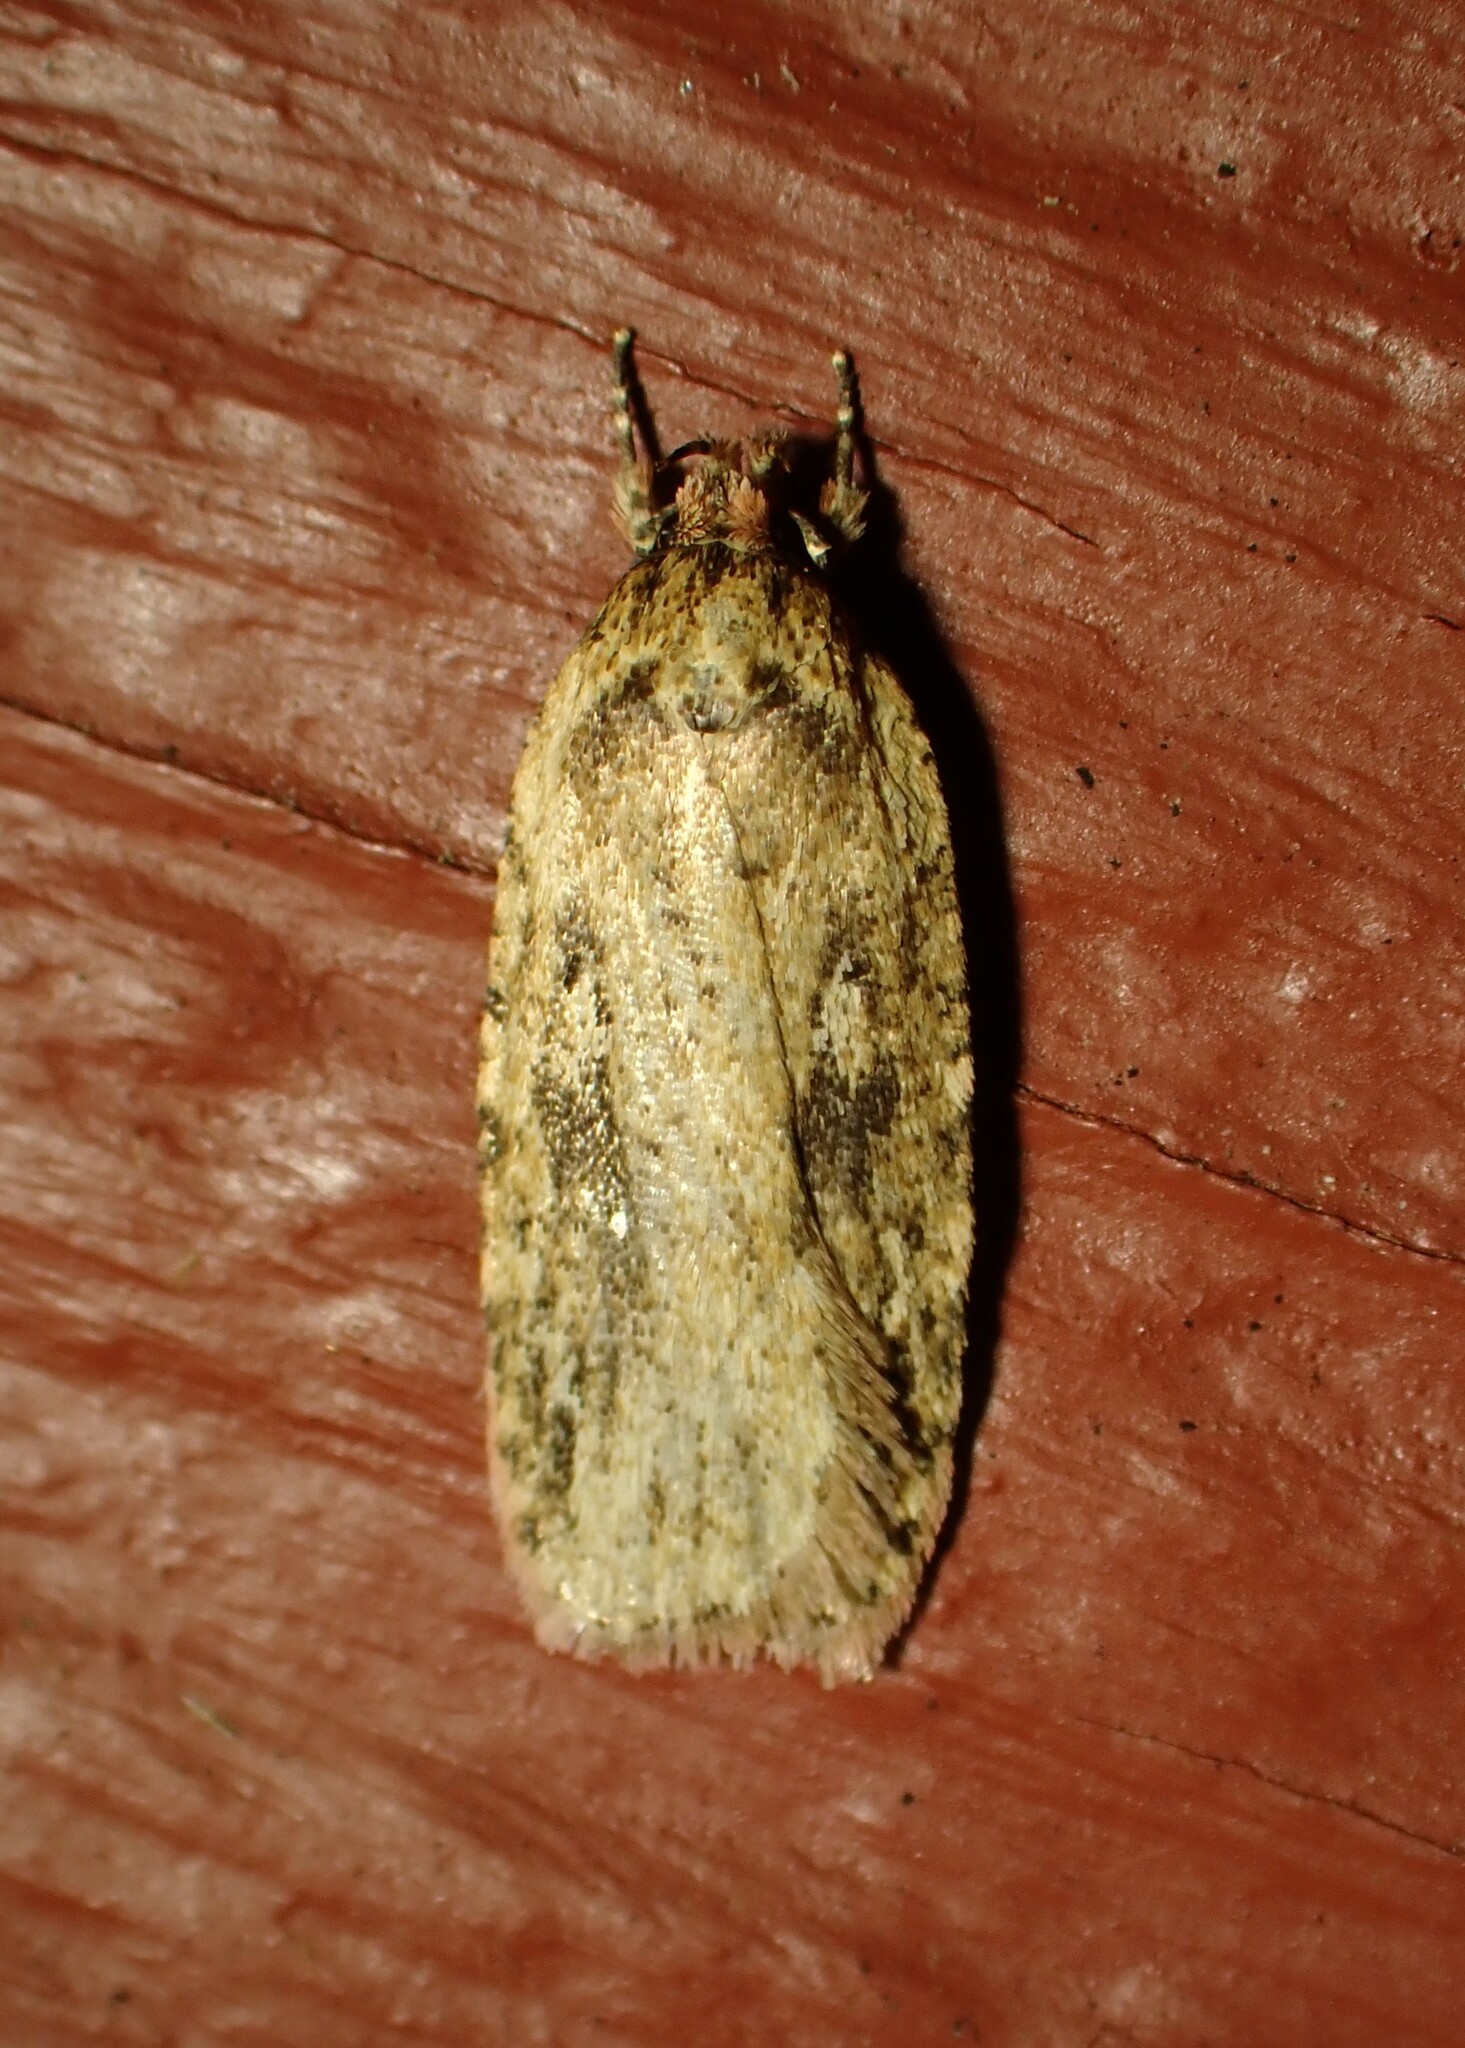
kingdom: Animalia
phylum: Arthropoda
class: Insecta
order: Lepidoptera
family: Depressariidae
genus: Agonopterix
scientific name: Agonopterix pulvipennella
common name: Goldenrod leafffolder
